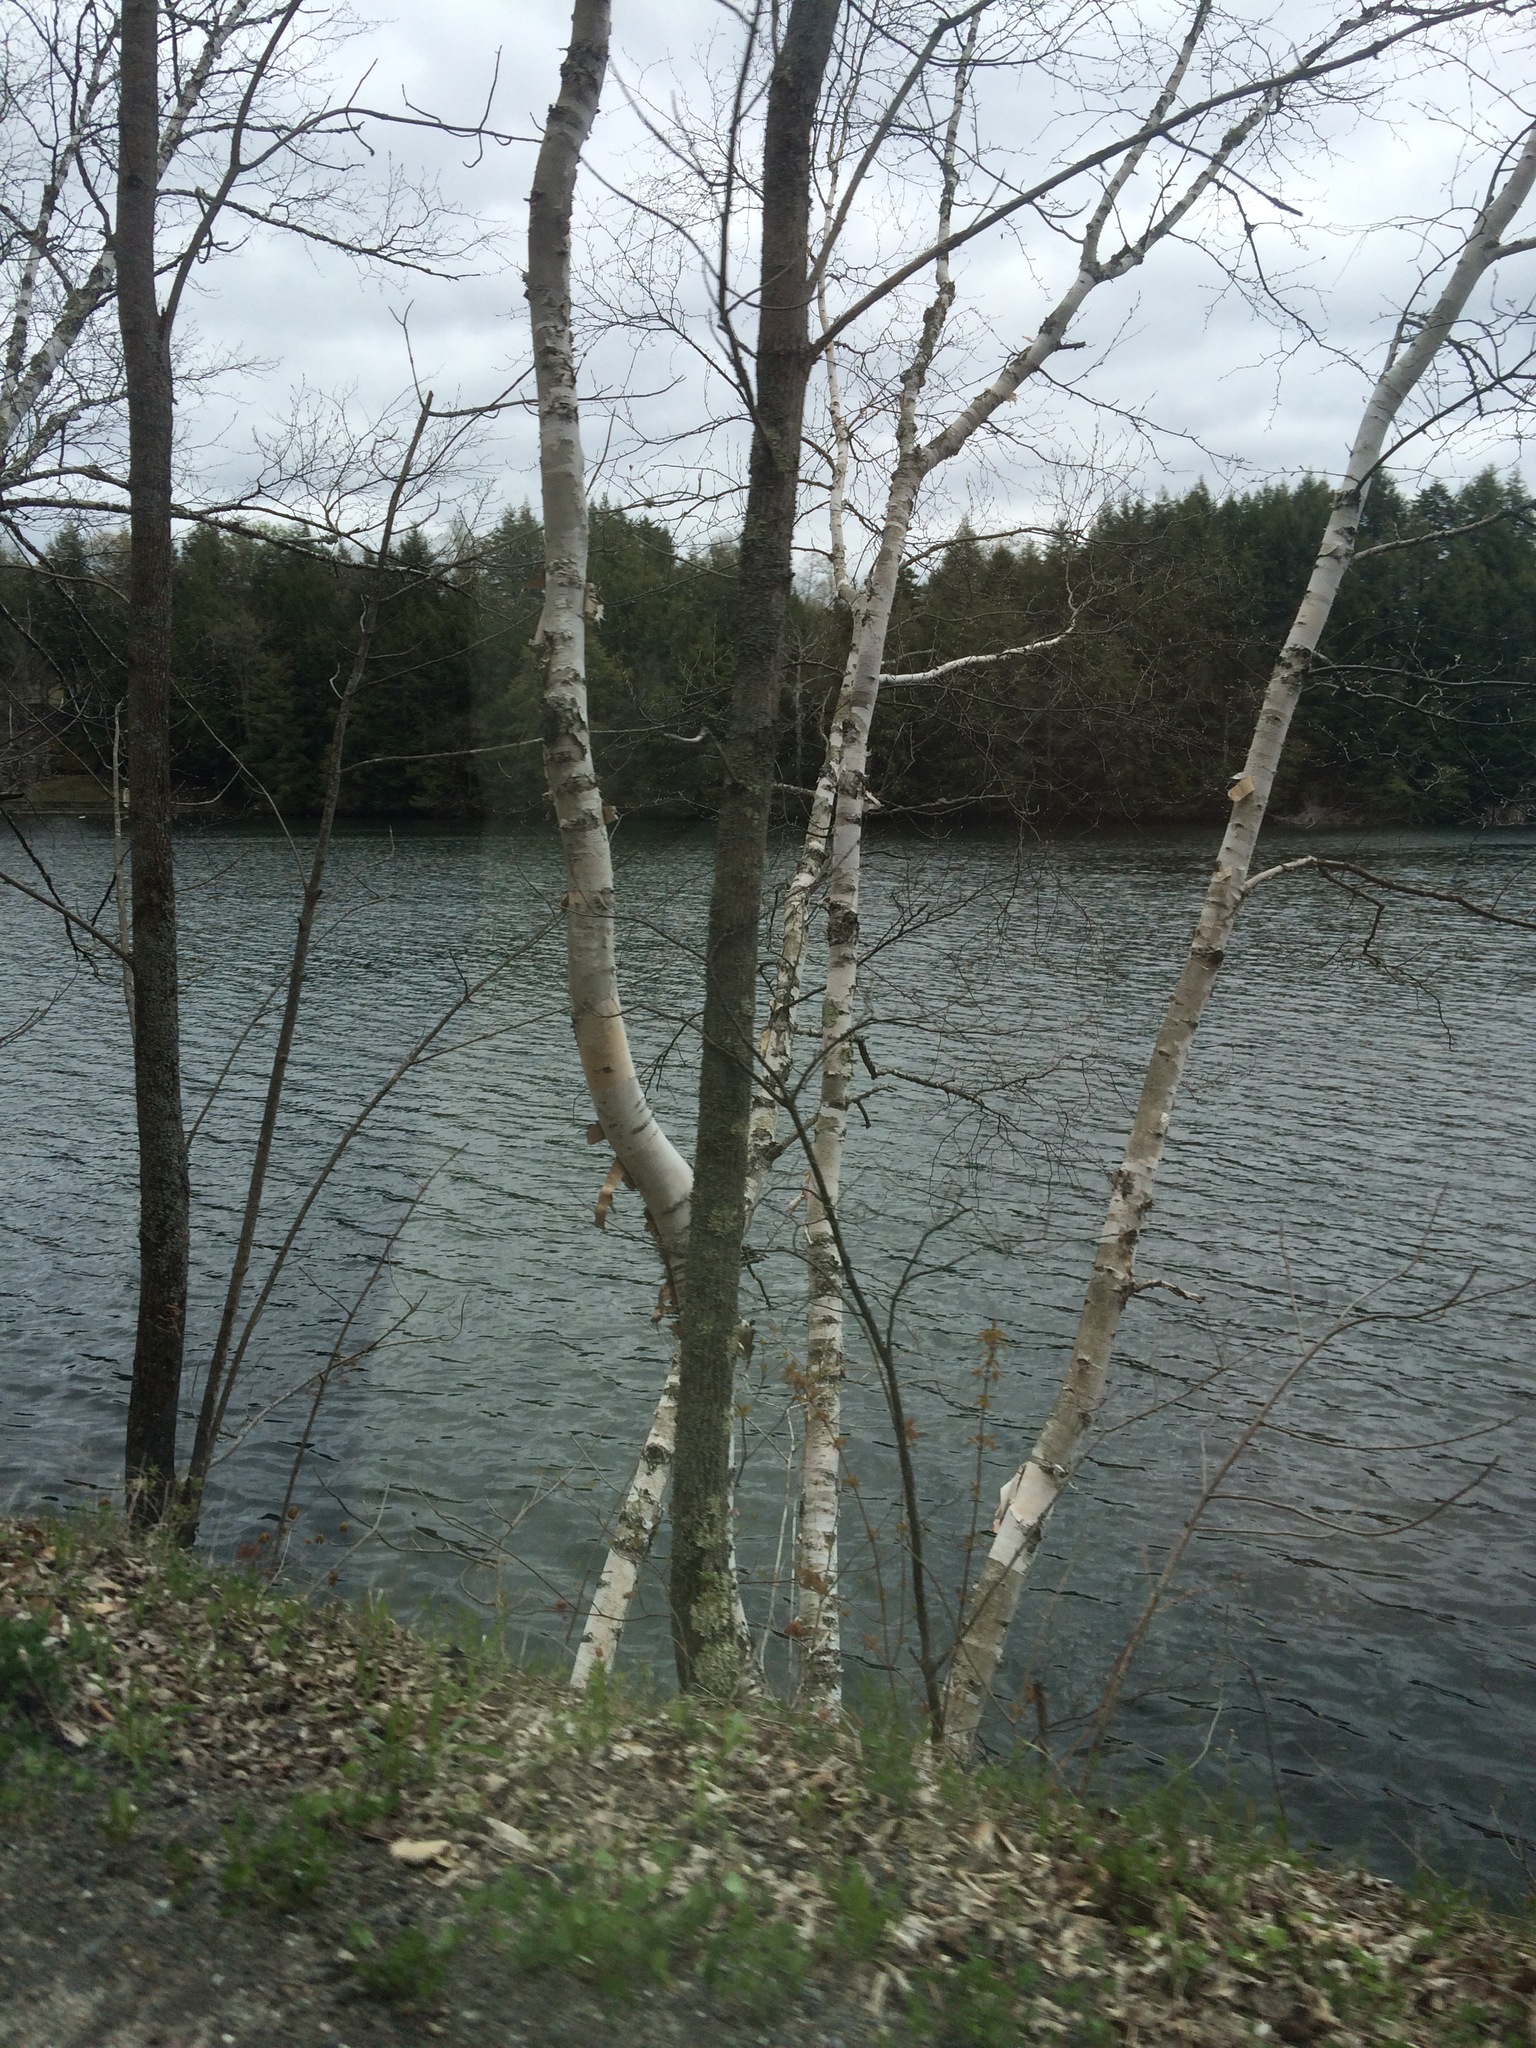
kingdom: Plantae
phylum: Tracheophyta
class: Magnoliopsida
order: Fagales
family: Betulaceae
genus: Betula
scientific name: Betula papyrifera
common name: Paper birch
